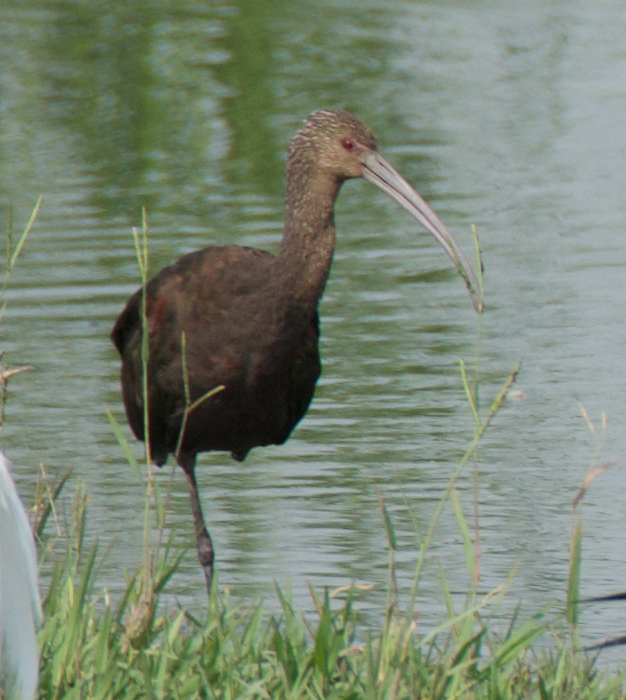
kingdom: Animalia
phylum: Chordata
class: Aves
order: Pelecaniformes
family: Threskiornithidae
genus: Plegadis
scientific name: Plegadis chihi
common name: White-faced ibis
